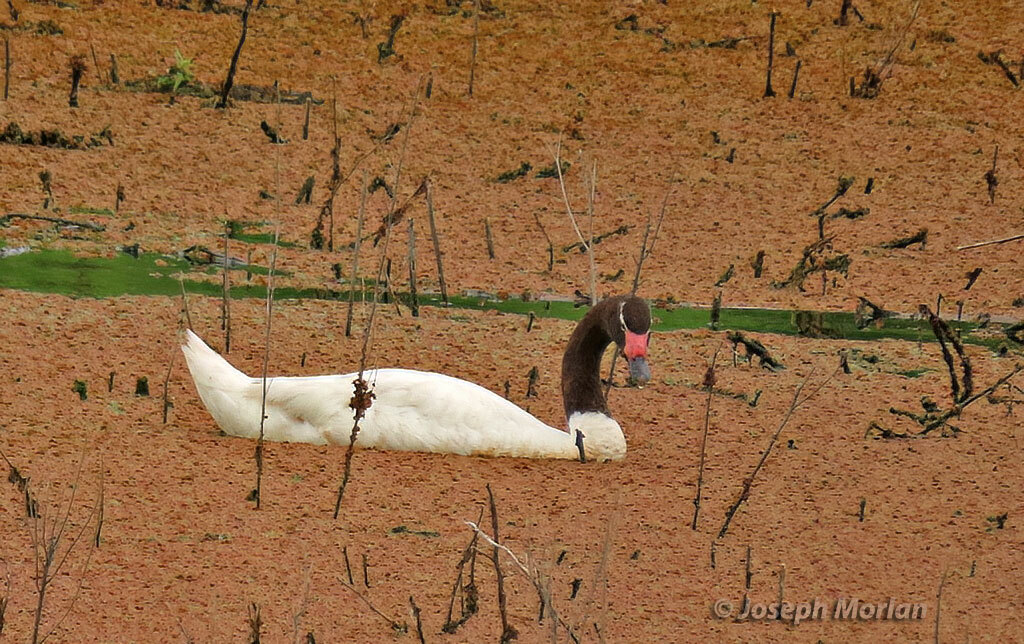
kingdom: Animalia
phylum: Chordata
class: Aves
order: Anseriformes
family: Anatidae
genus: Cygnus
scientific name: Cygnus melancoryphus
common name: Black-necked swan
